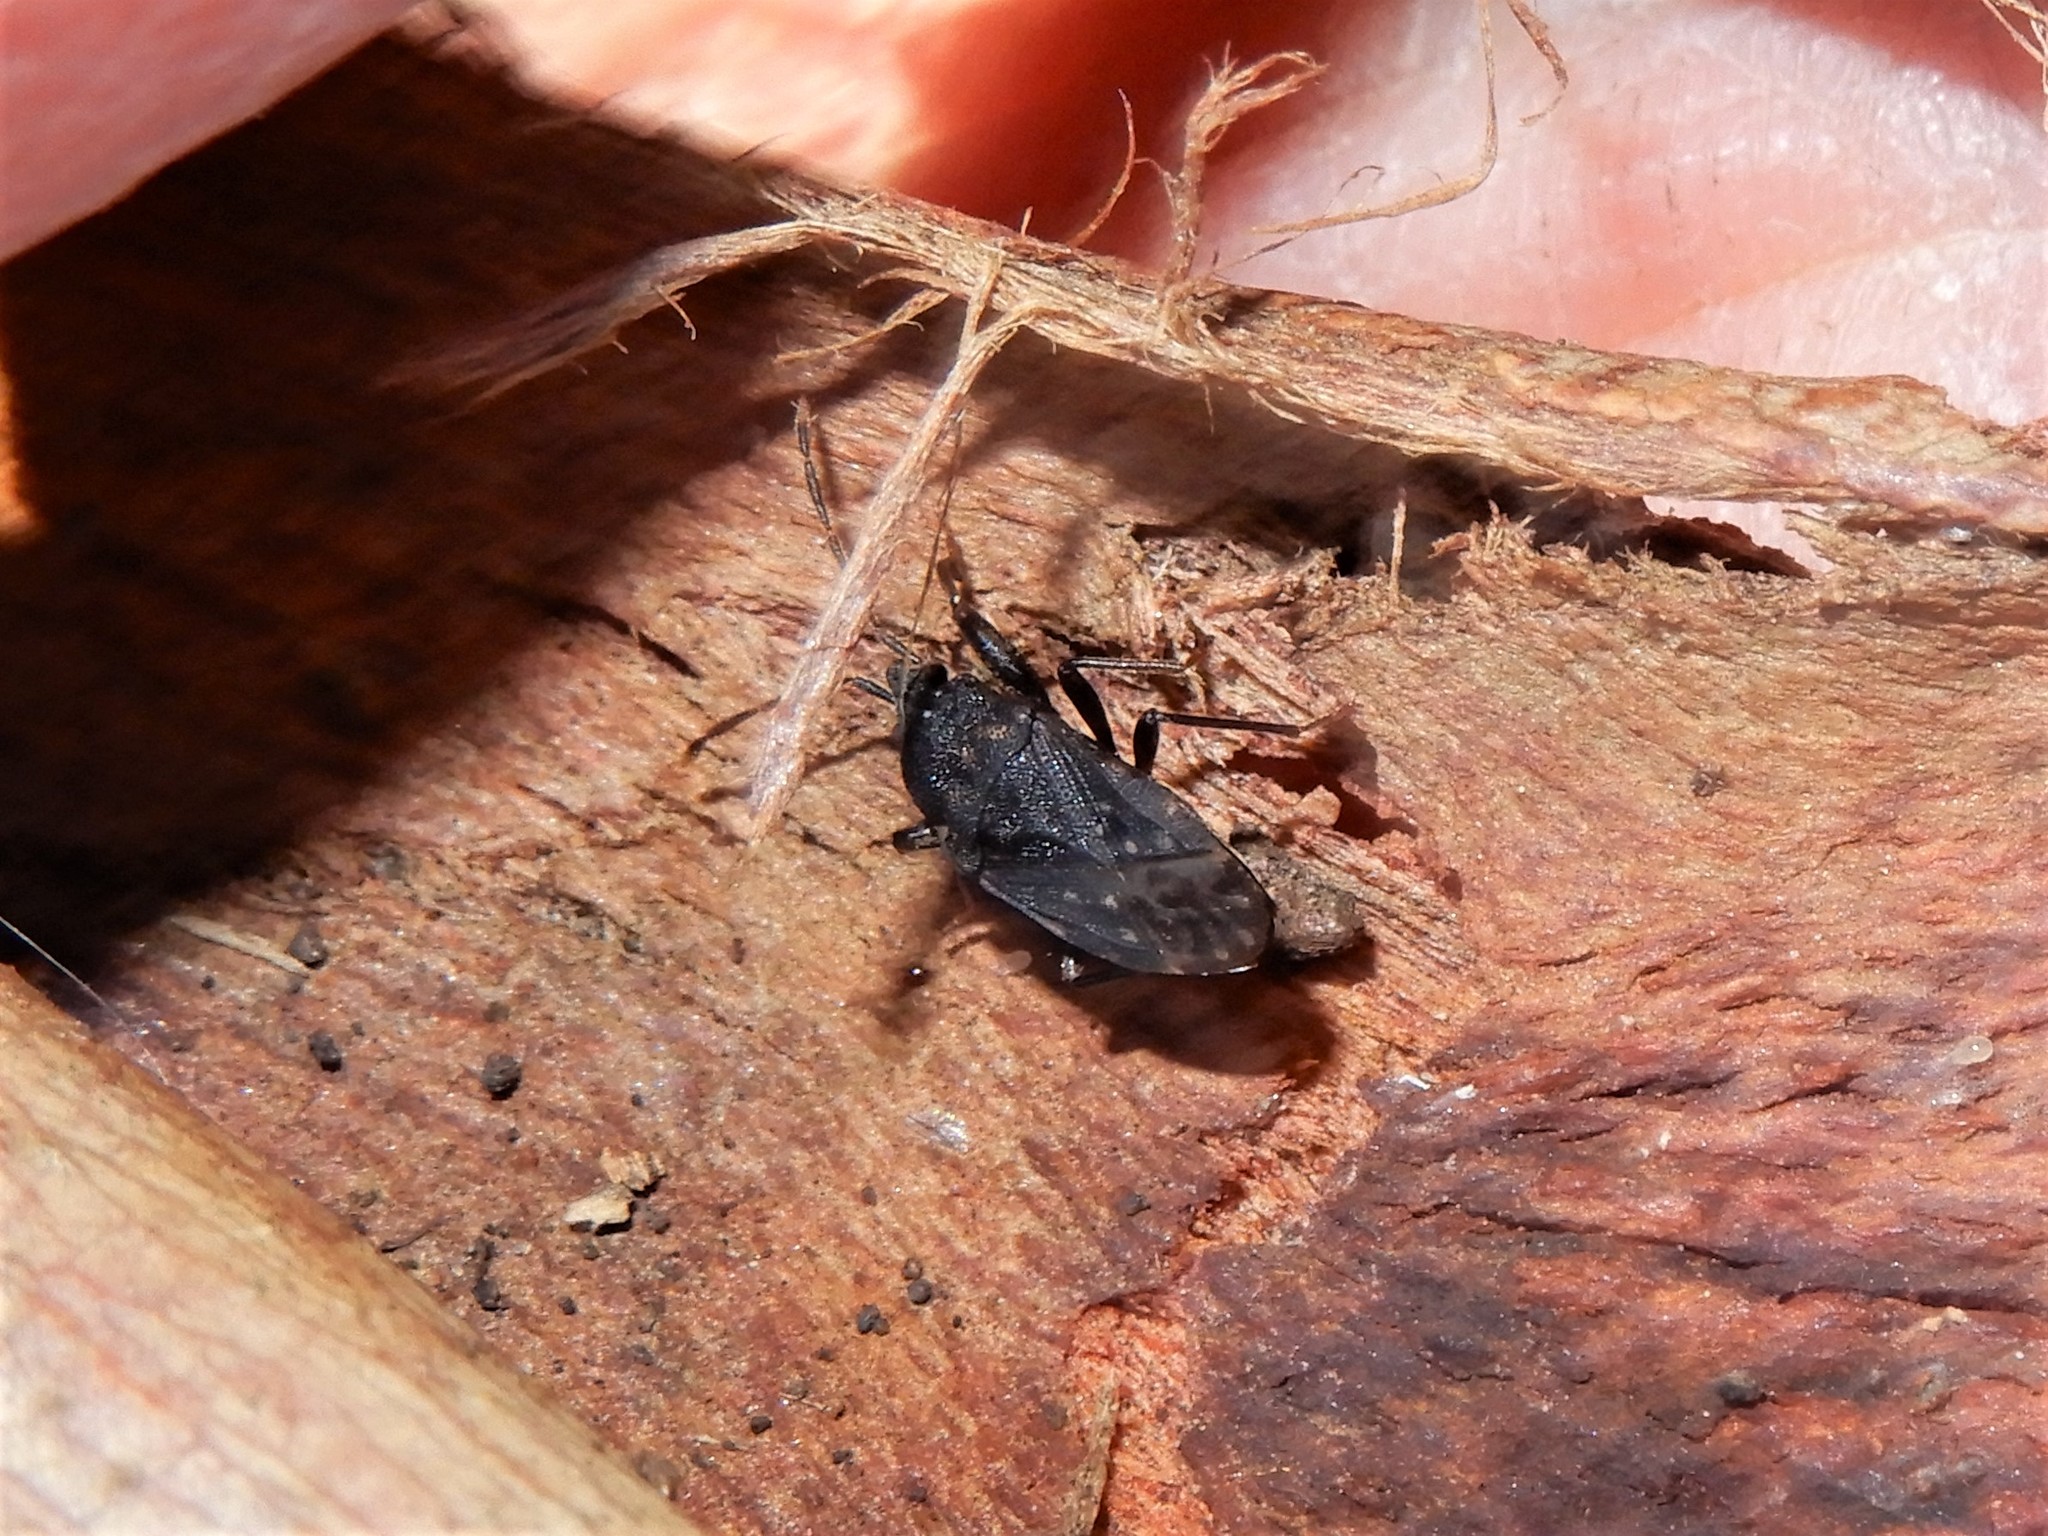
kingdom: Animalia
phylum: Arthropoda
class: Insecta
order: Hemiptera
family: Rhyparochromidae
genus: Paradrymus
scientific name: Paradrymus exilirostris
